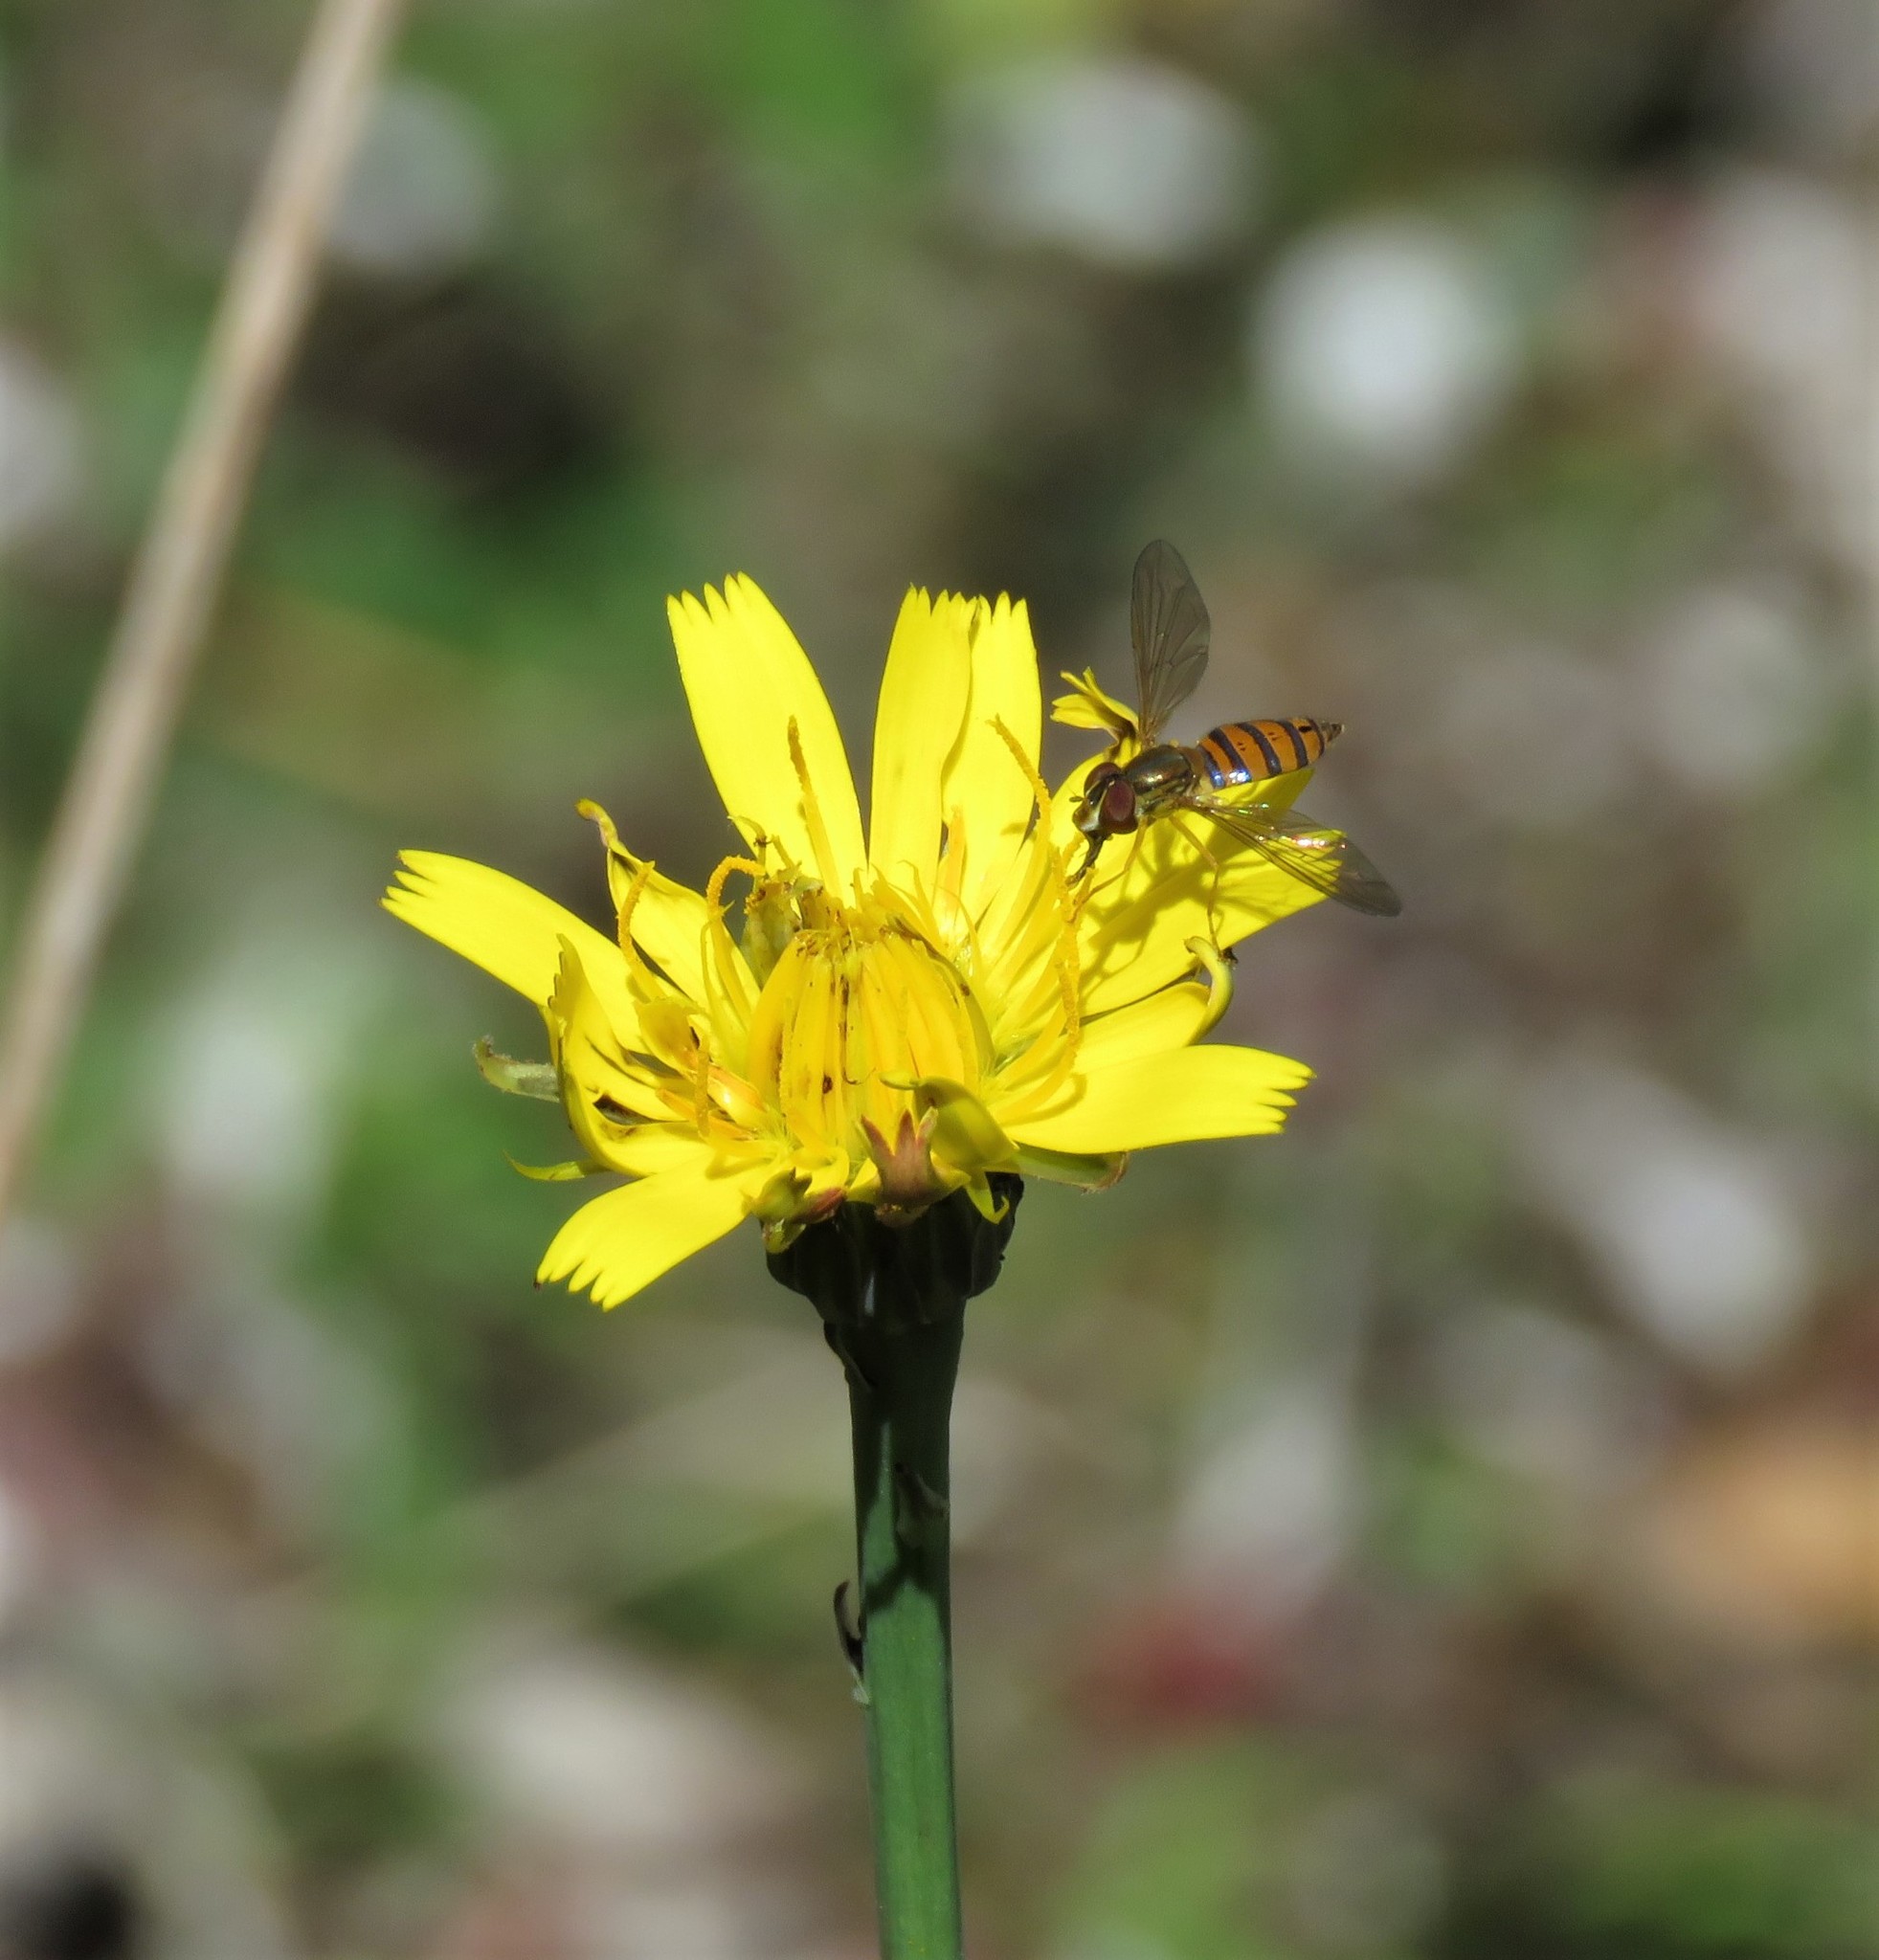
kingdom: Plantae
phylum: Tracheophyta
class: Magnoliopsida
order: Asterales
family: Asteraceae
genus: Hypochaeris
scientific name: Hypochaeris radicata
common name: Flatweed
